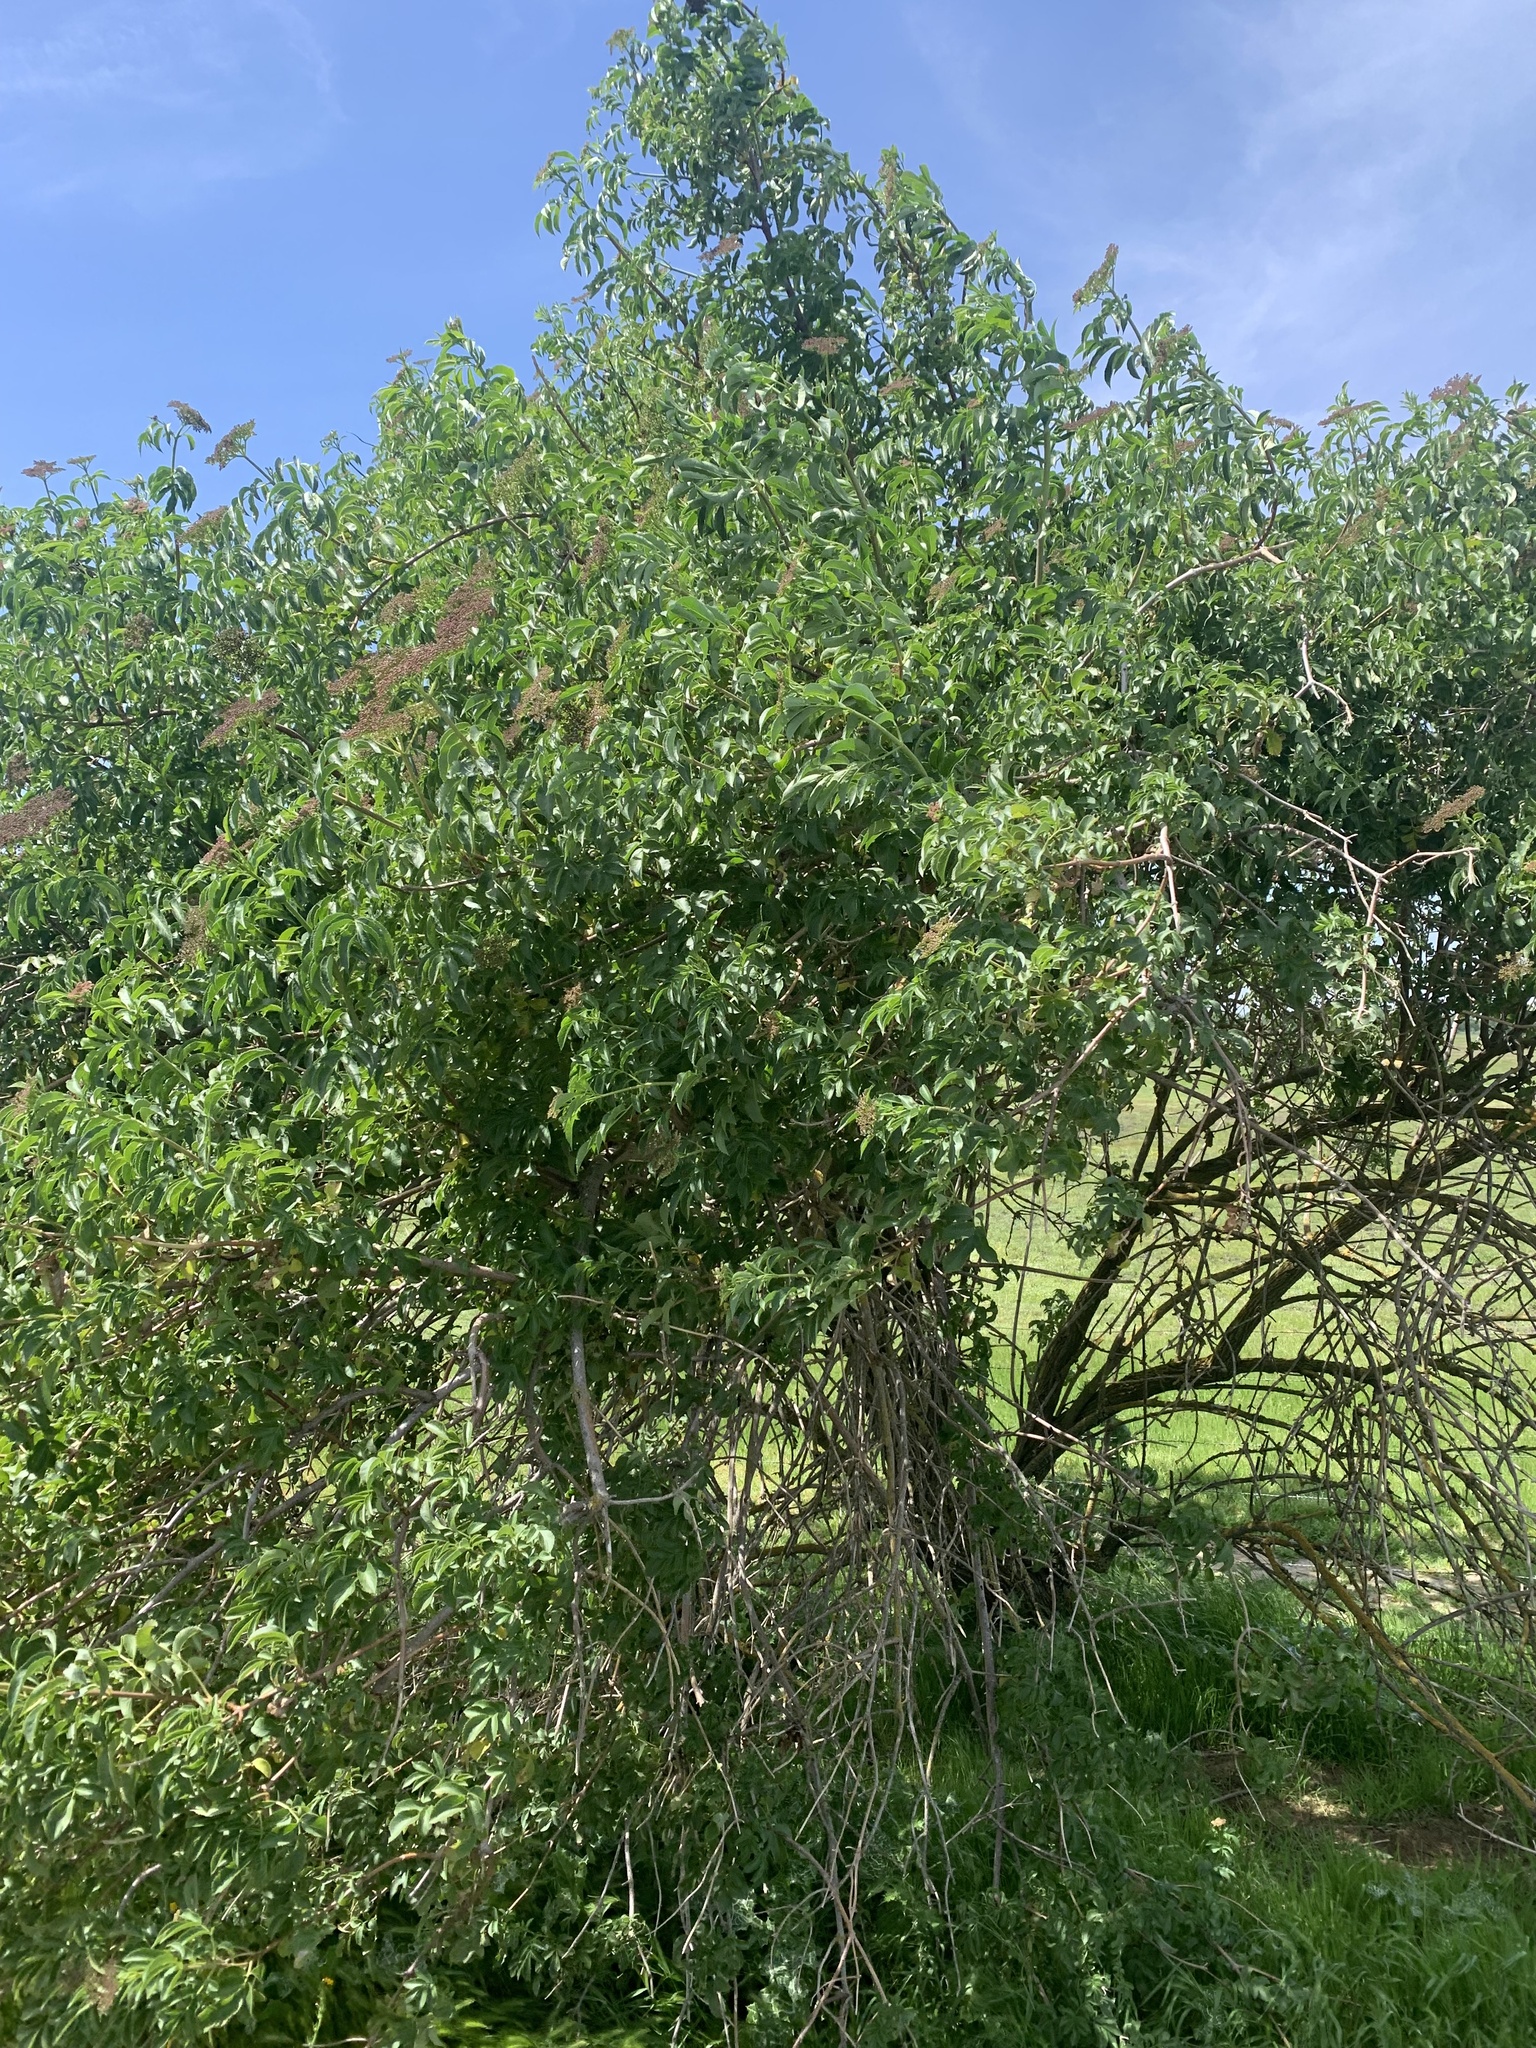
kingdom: Plantae
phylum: Tracheophyta
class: Magnoliopsida
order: Dipsacales
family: Viburnaceae
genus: Sambucus
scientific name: Sambucus cerulea
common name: Blue elder
